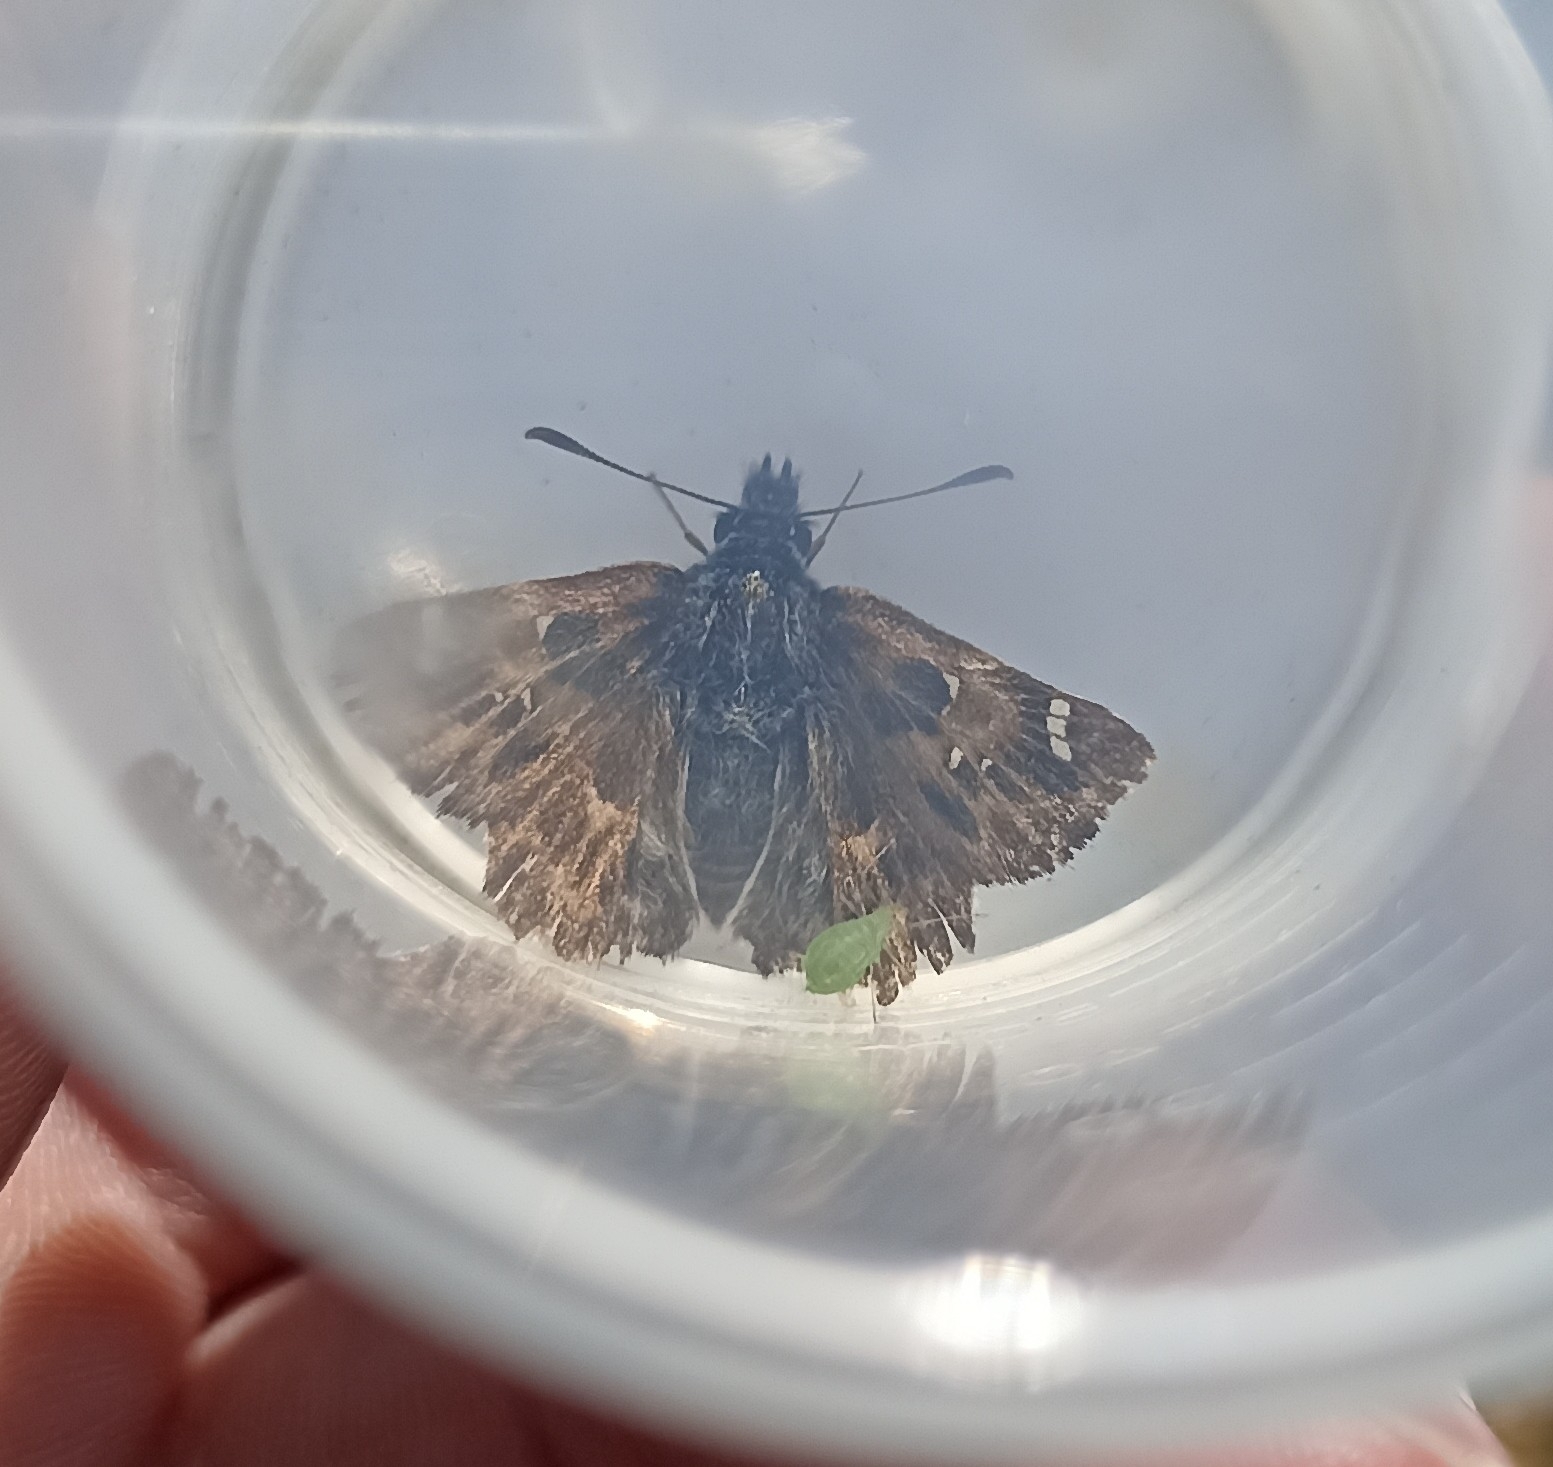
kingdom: Animalia
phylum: Arthropoda
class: Insecta
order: Lepidoptera
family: Hesperiidae
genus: Carcharodus
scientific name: Carcharodus alceae
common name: Mallow skipper
